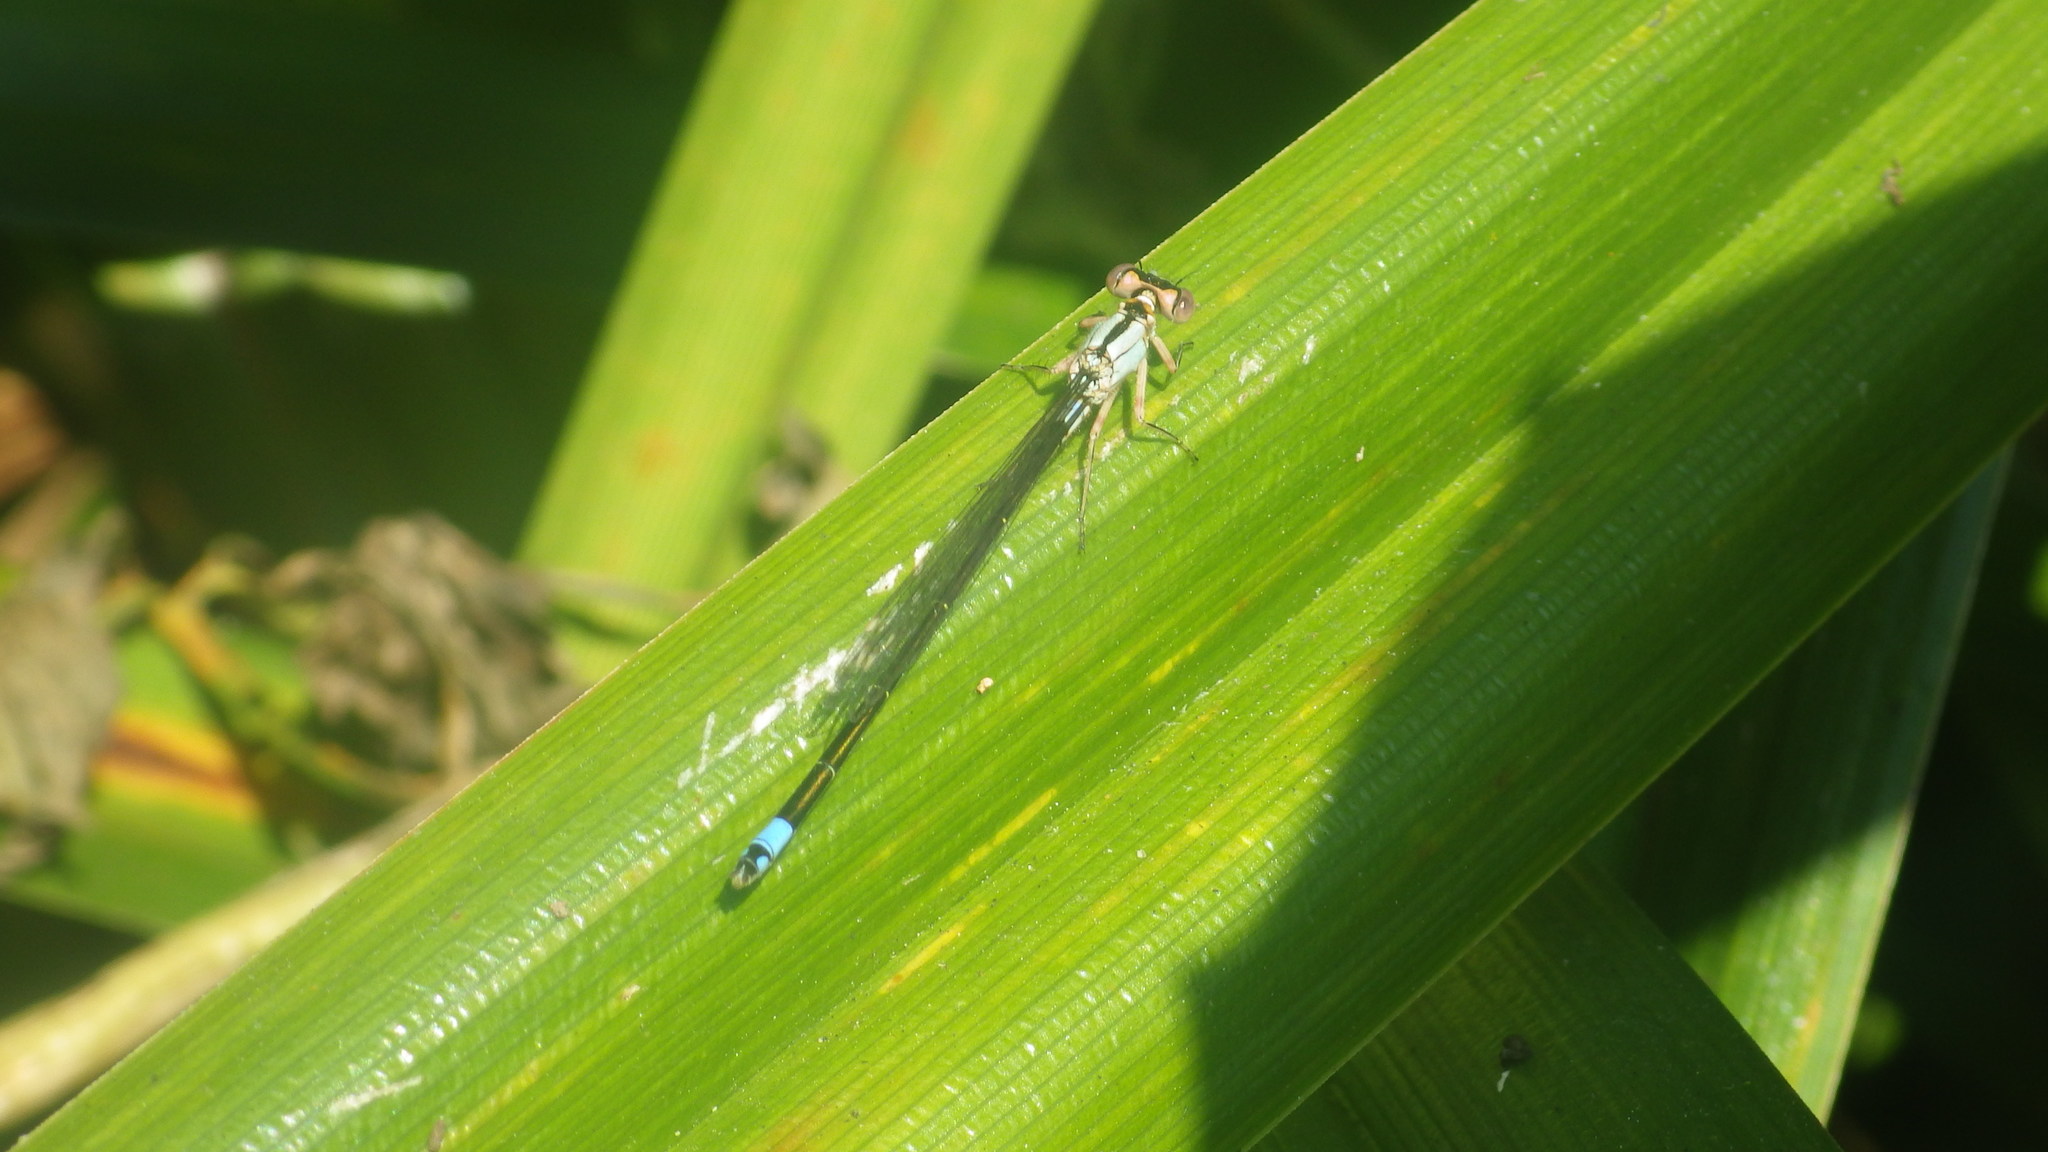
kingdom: Animalia
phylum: Arthropoda
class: Insecta
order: Odonata
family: Coenagrionidae
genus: Ischnura
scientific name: Ischnura cervula
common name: Pacific forktail
